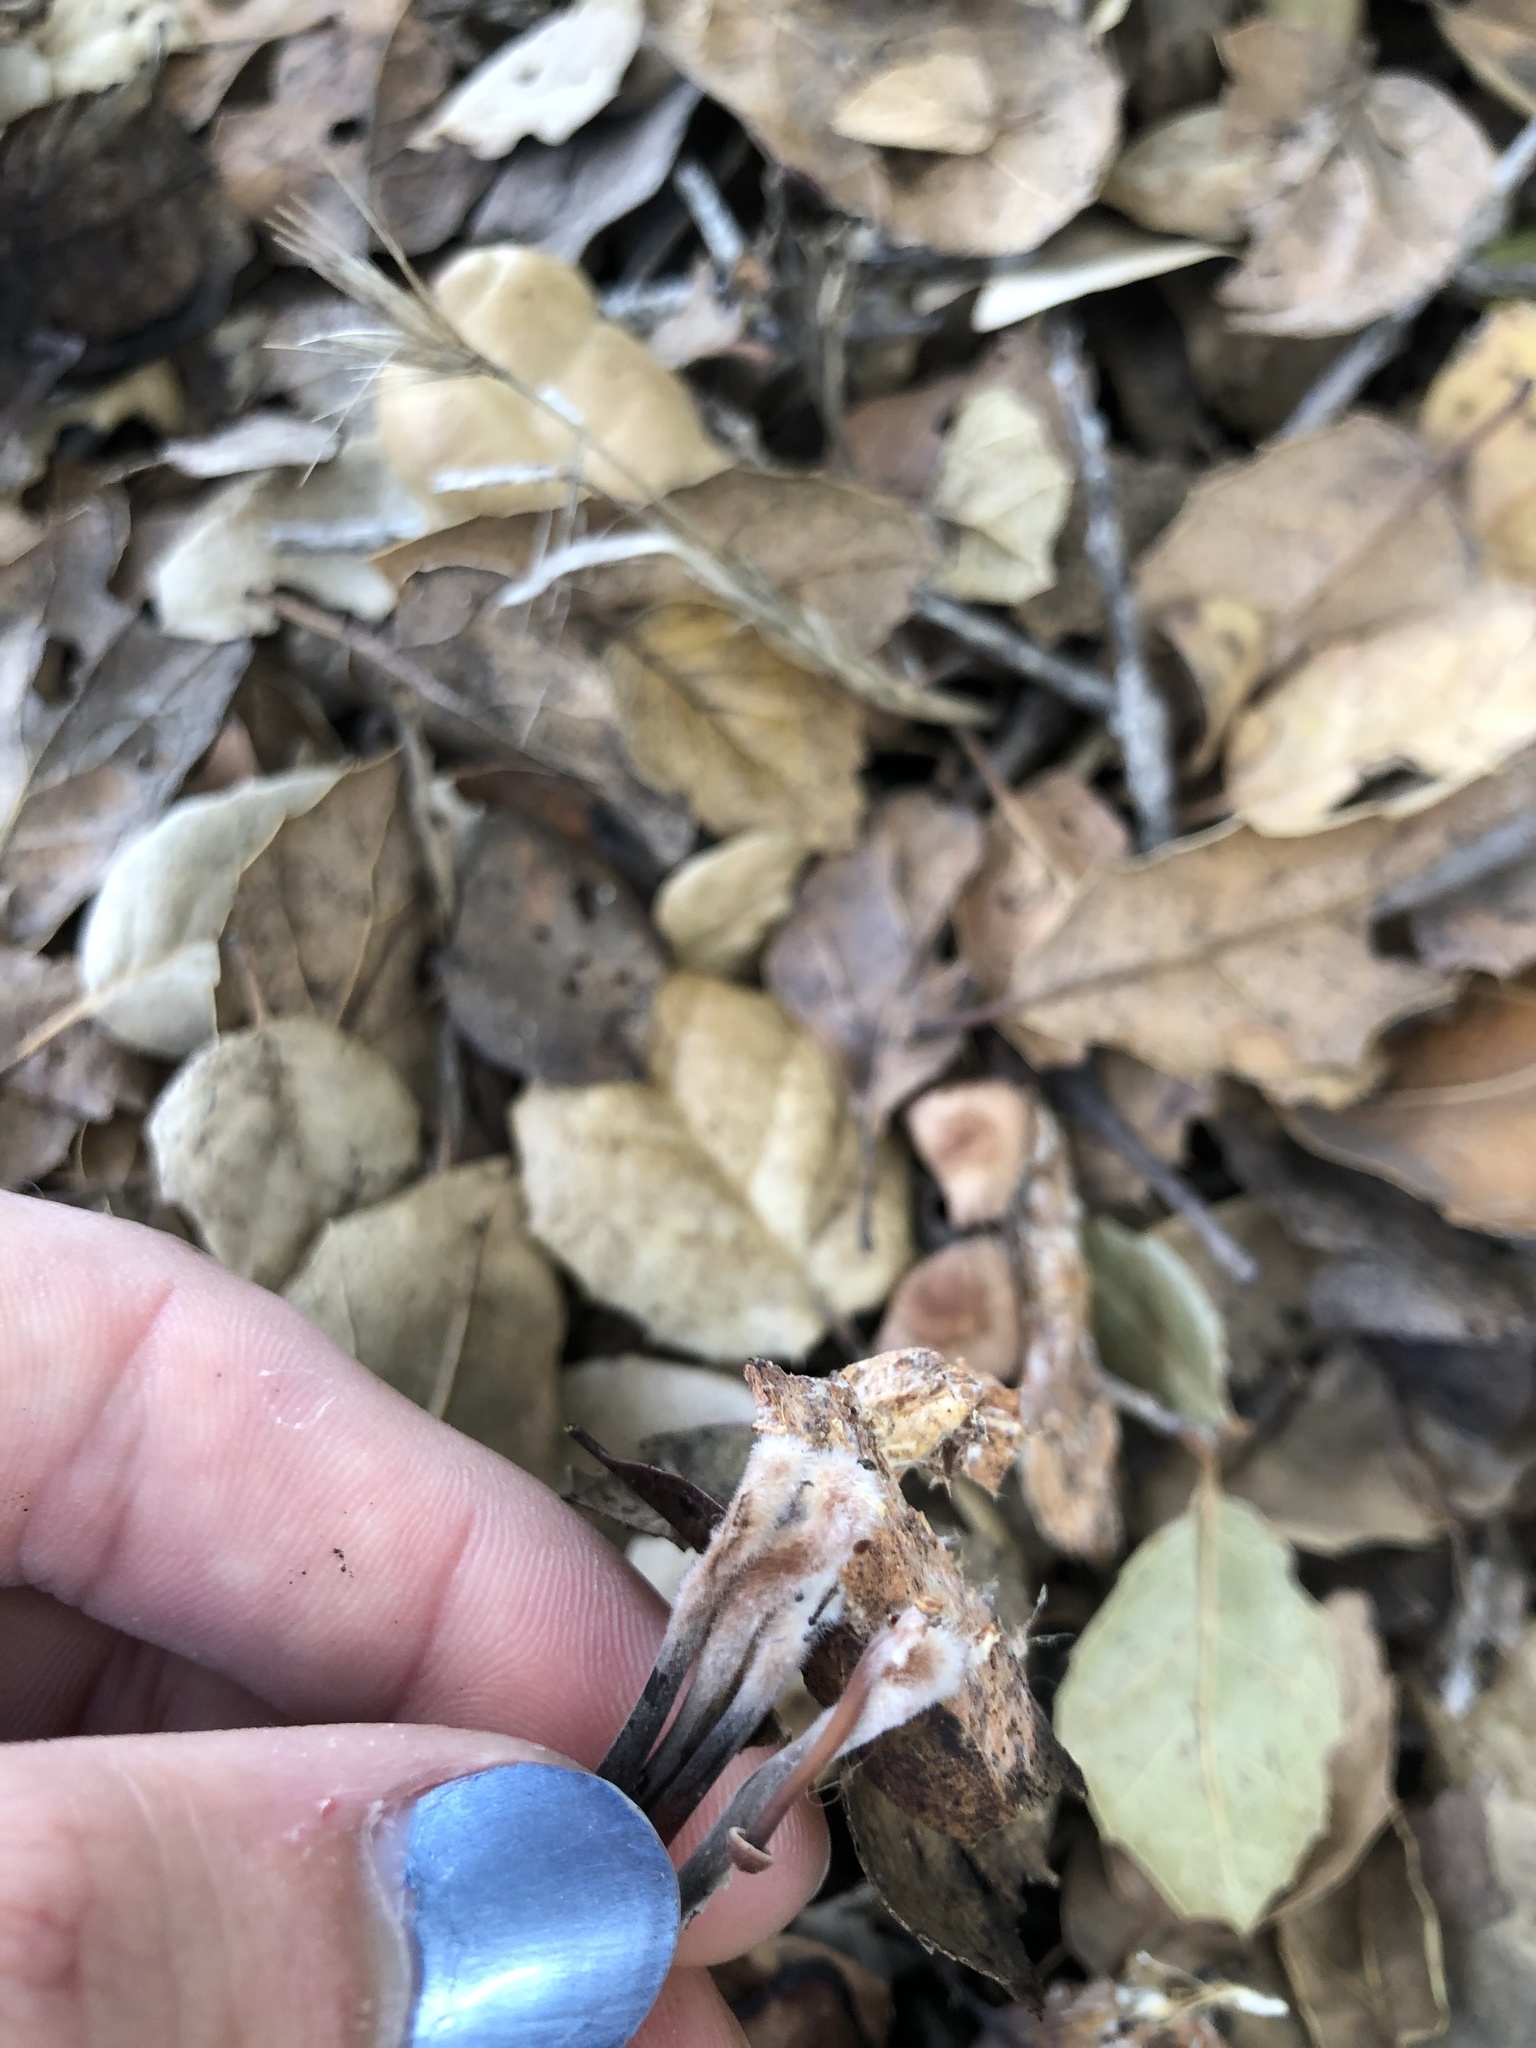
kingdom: Fungi
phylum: Basidiomycota
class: Agaricomycetes
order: Agaricales
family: Omphalotaceae
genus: Gymnopus
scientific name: Gymnopus brassicolens
